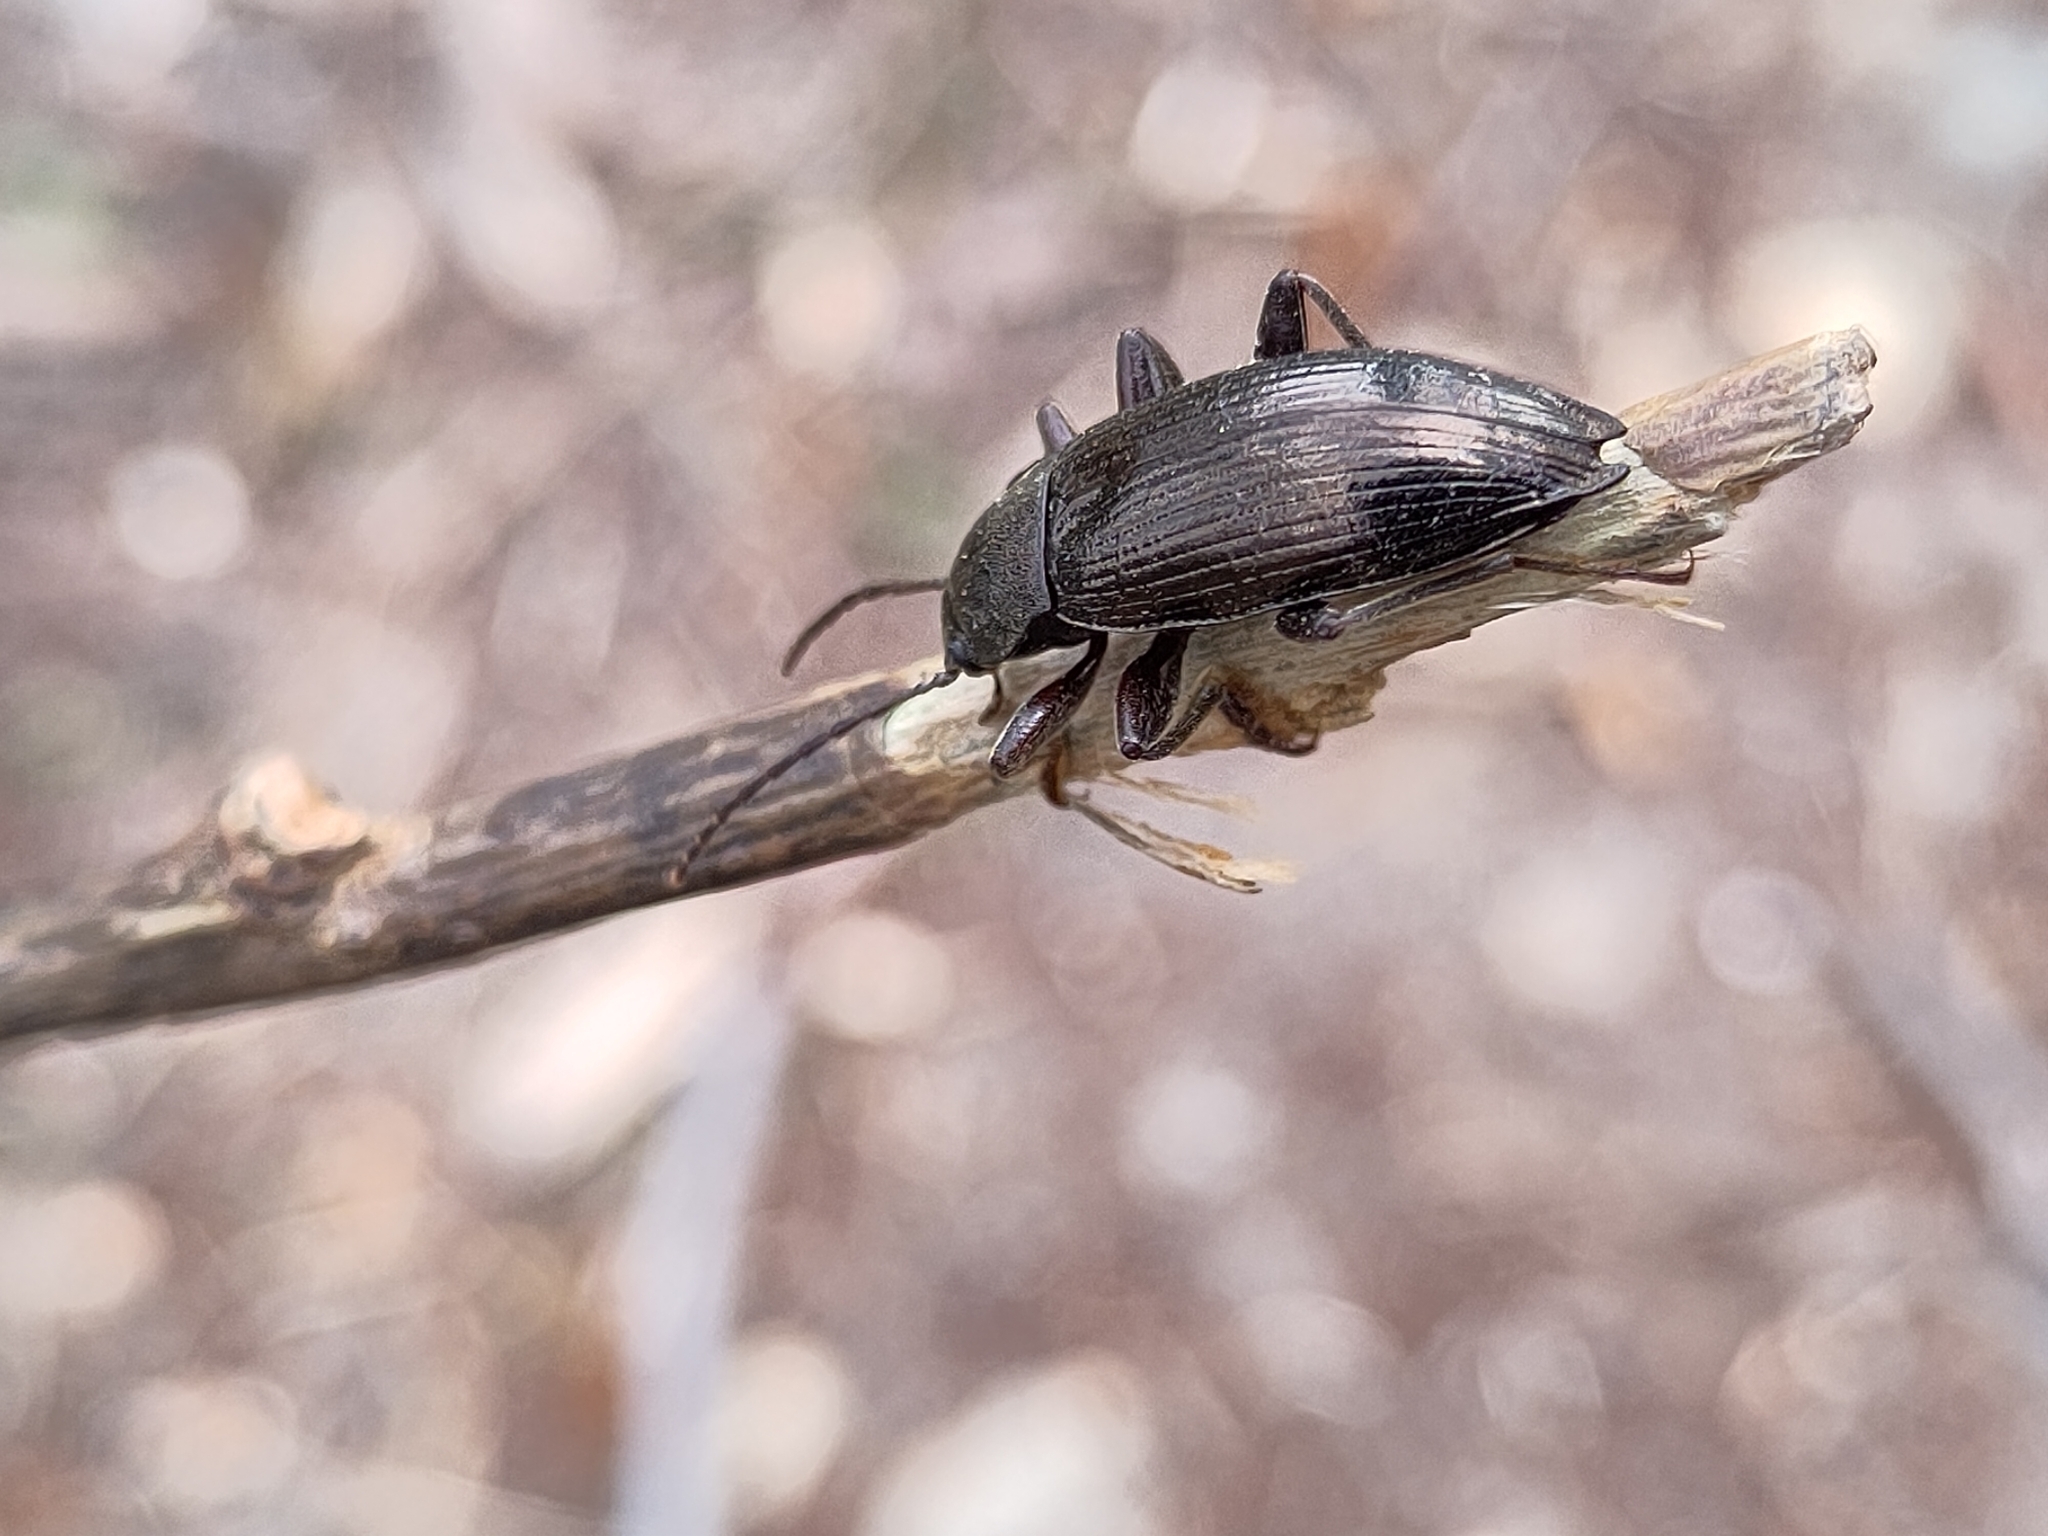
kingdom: Animalia
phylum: Arthropoda
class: Insecta
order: Coleoptera
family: Tenebrionidae
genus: Stenomax
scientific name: Stenomax aeneus
